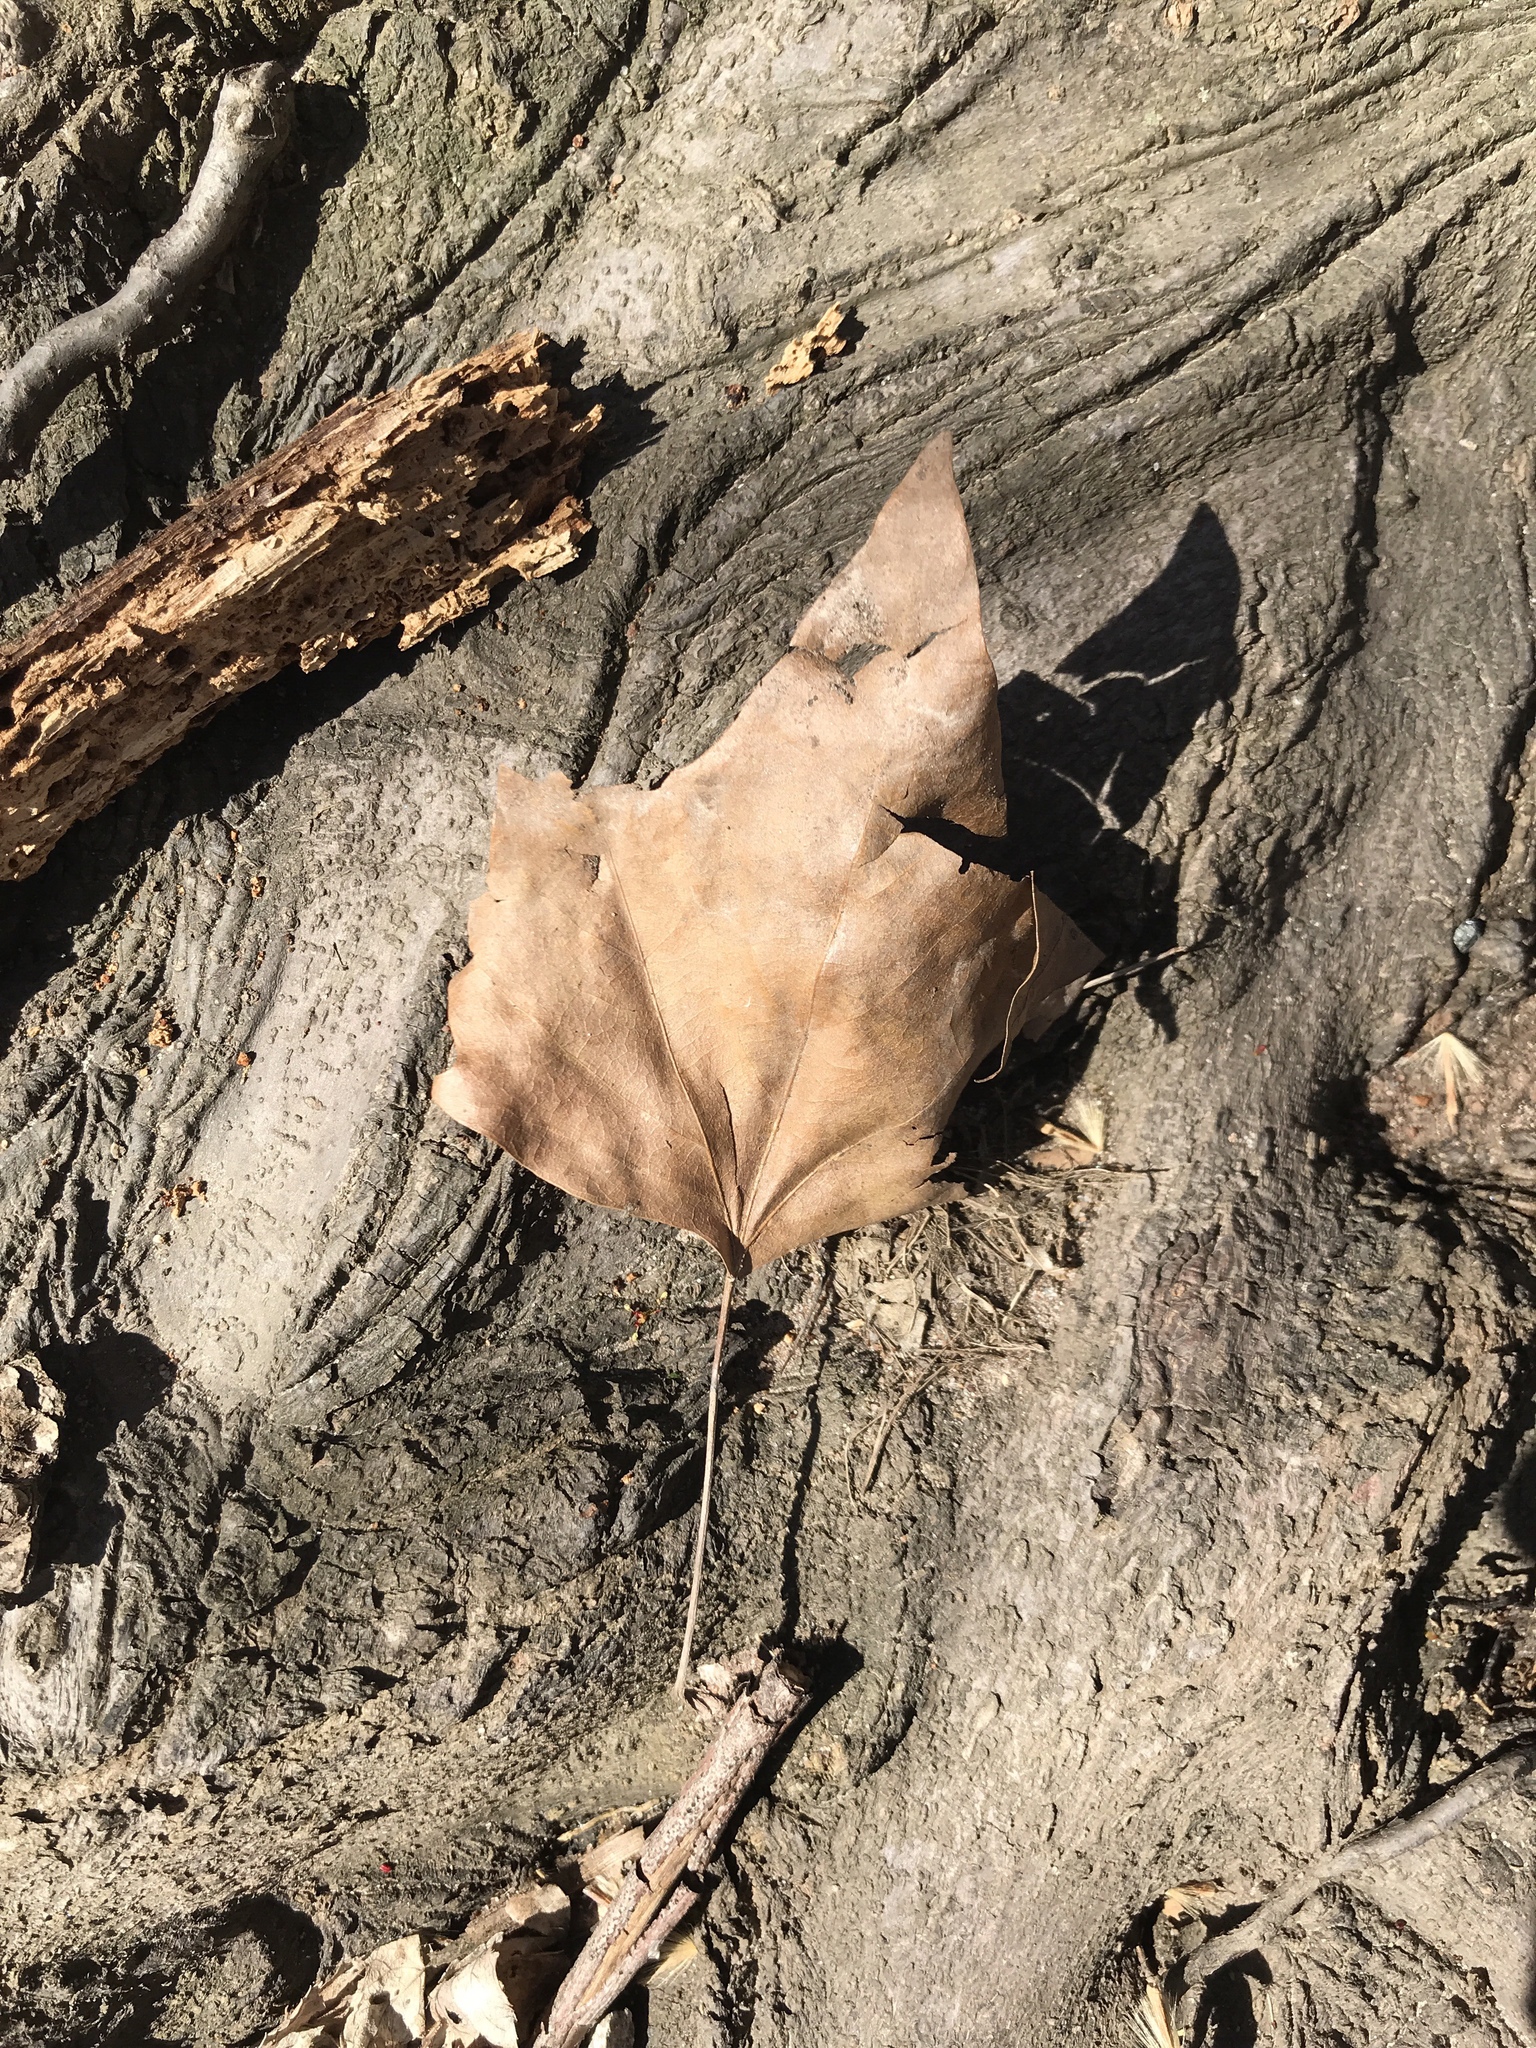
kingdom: Plantae
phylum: Tracheophyta
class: Magnoliopsida
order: Sapindales
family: Sapindaceae
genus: Acer
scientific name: Acer rubrum
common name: Red maple
